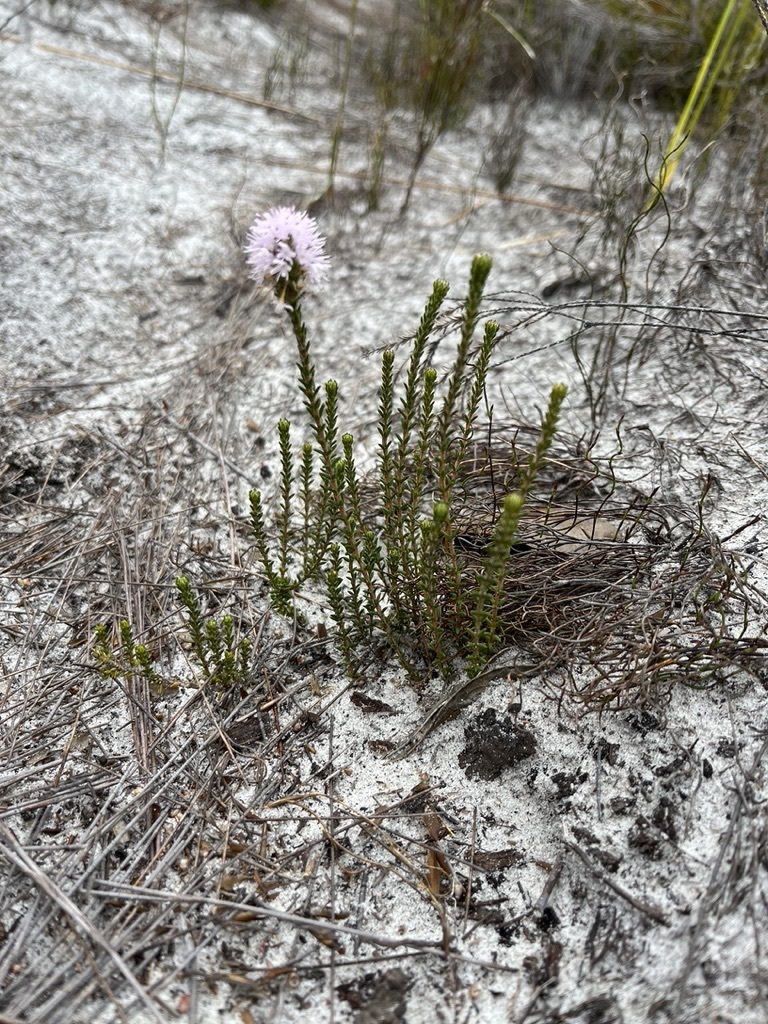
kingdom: Plantae
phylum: Tracheophyta
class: Magnoliopsida
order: Lamiales
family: Stilbaceae
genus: Stilbe
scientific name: Stilbe ericoides
